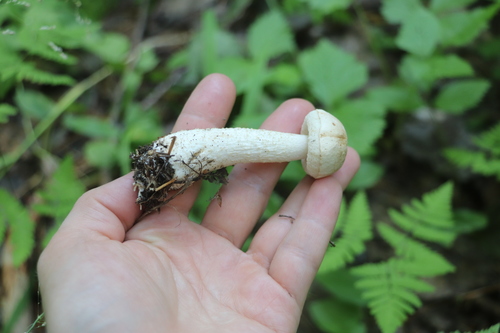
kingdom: Fungi
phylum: Basidiomycota
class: Agaricomycetes
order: Boletales
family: Boletaceae
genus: Leccinum
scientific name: Leccinum scabrum
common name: Blushing bolete
